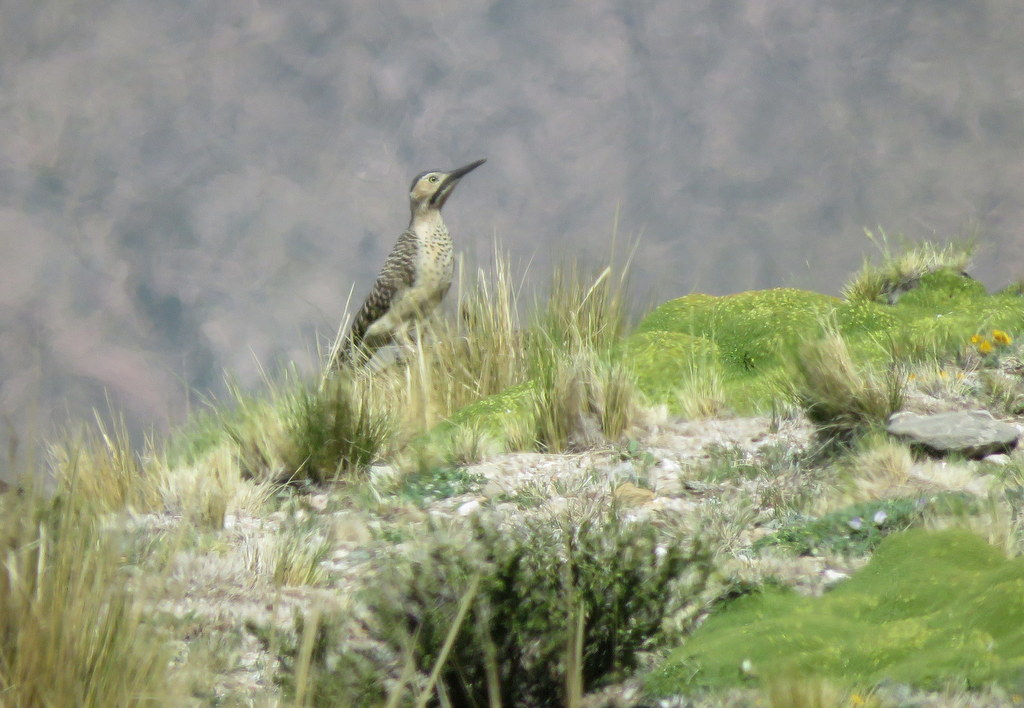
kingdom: Animalia
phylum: Chordata
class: Aves
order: Piciformes
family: Picidae
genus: Colaptes
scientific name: Colaptes rupicola
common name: Andean flicker
